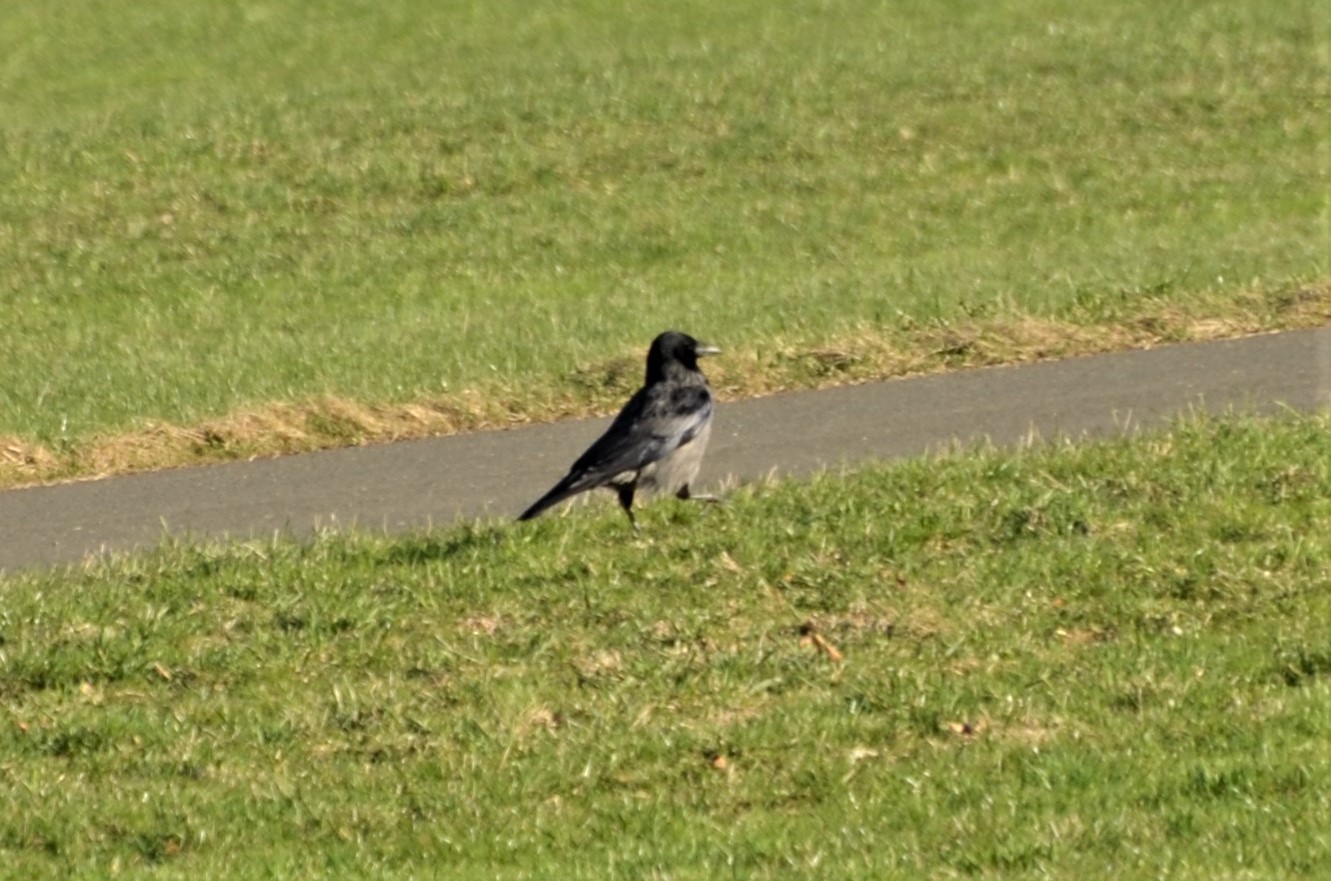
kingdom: Animalia
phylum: Chordata
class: Aves
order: Passeriformes
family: Corvidae
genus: Corvus
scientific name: Corvus
